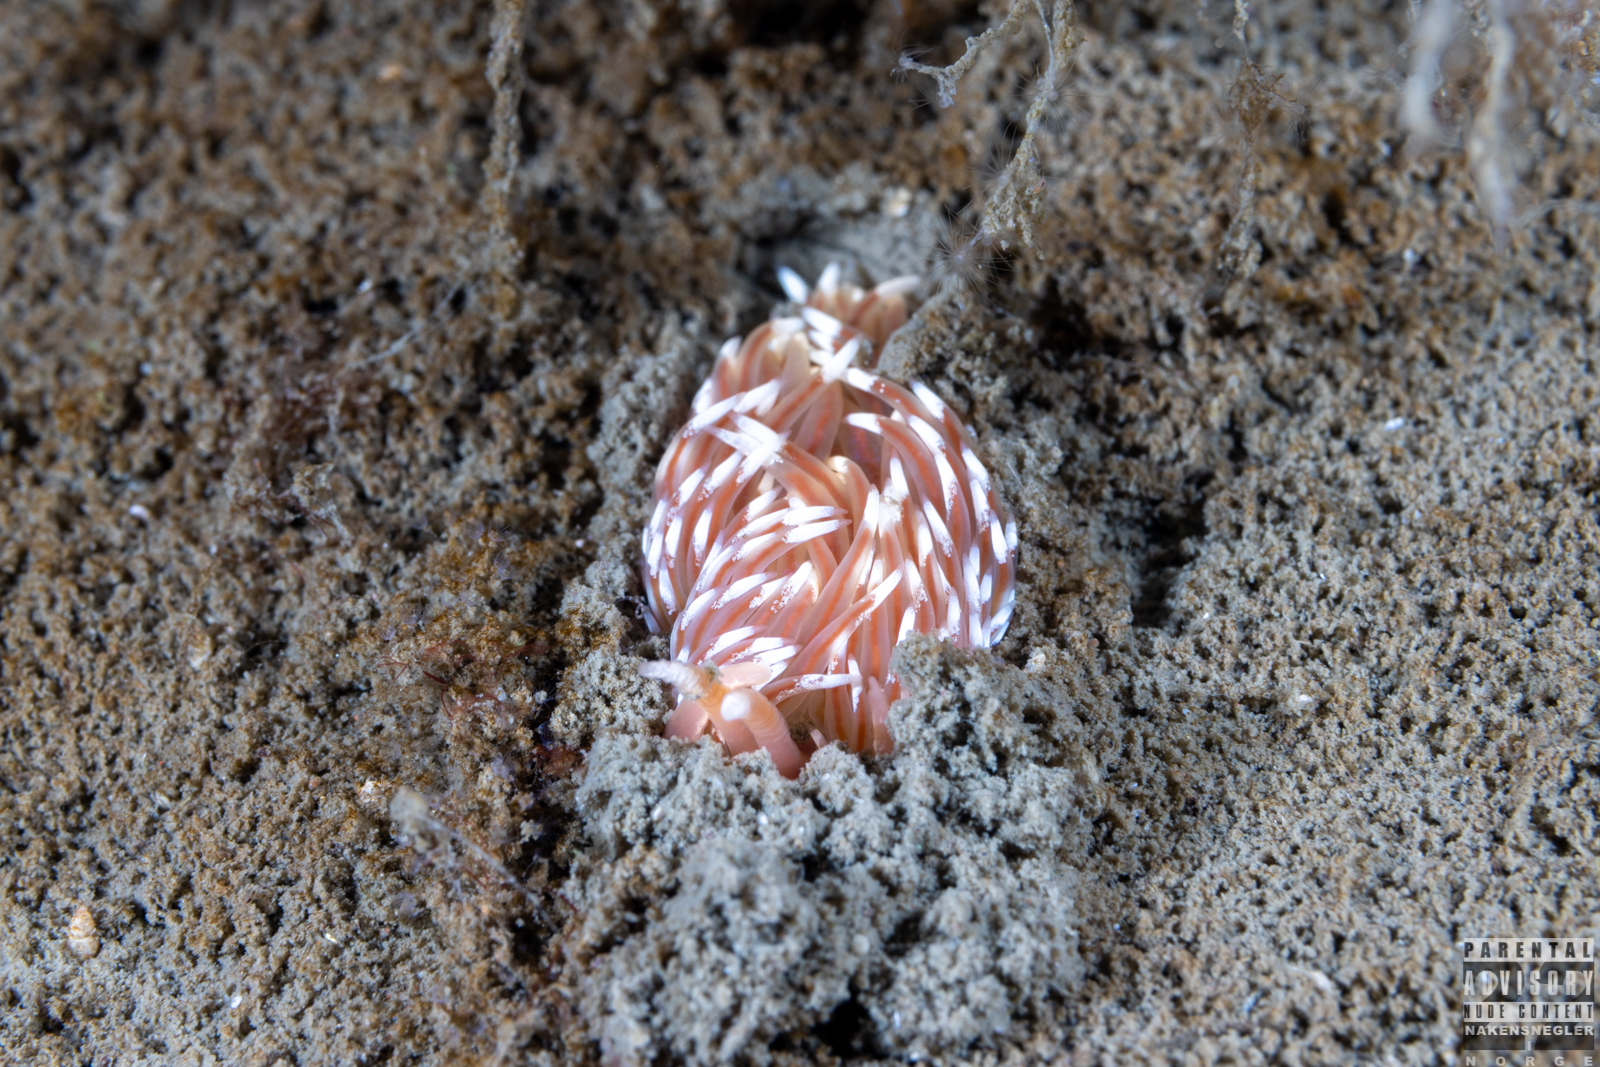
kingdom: Animalia
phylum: Mollusca
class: Gastropoda
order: Nudibranchia
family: Facelinidae
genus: Facelina
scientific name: Facelina bostoniensis
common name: Boston facelina
